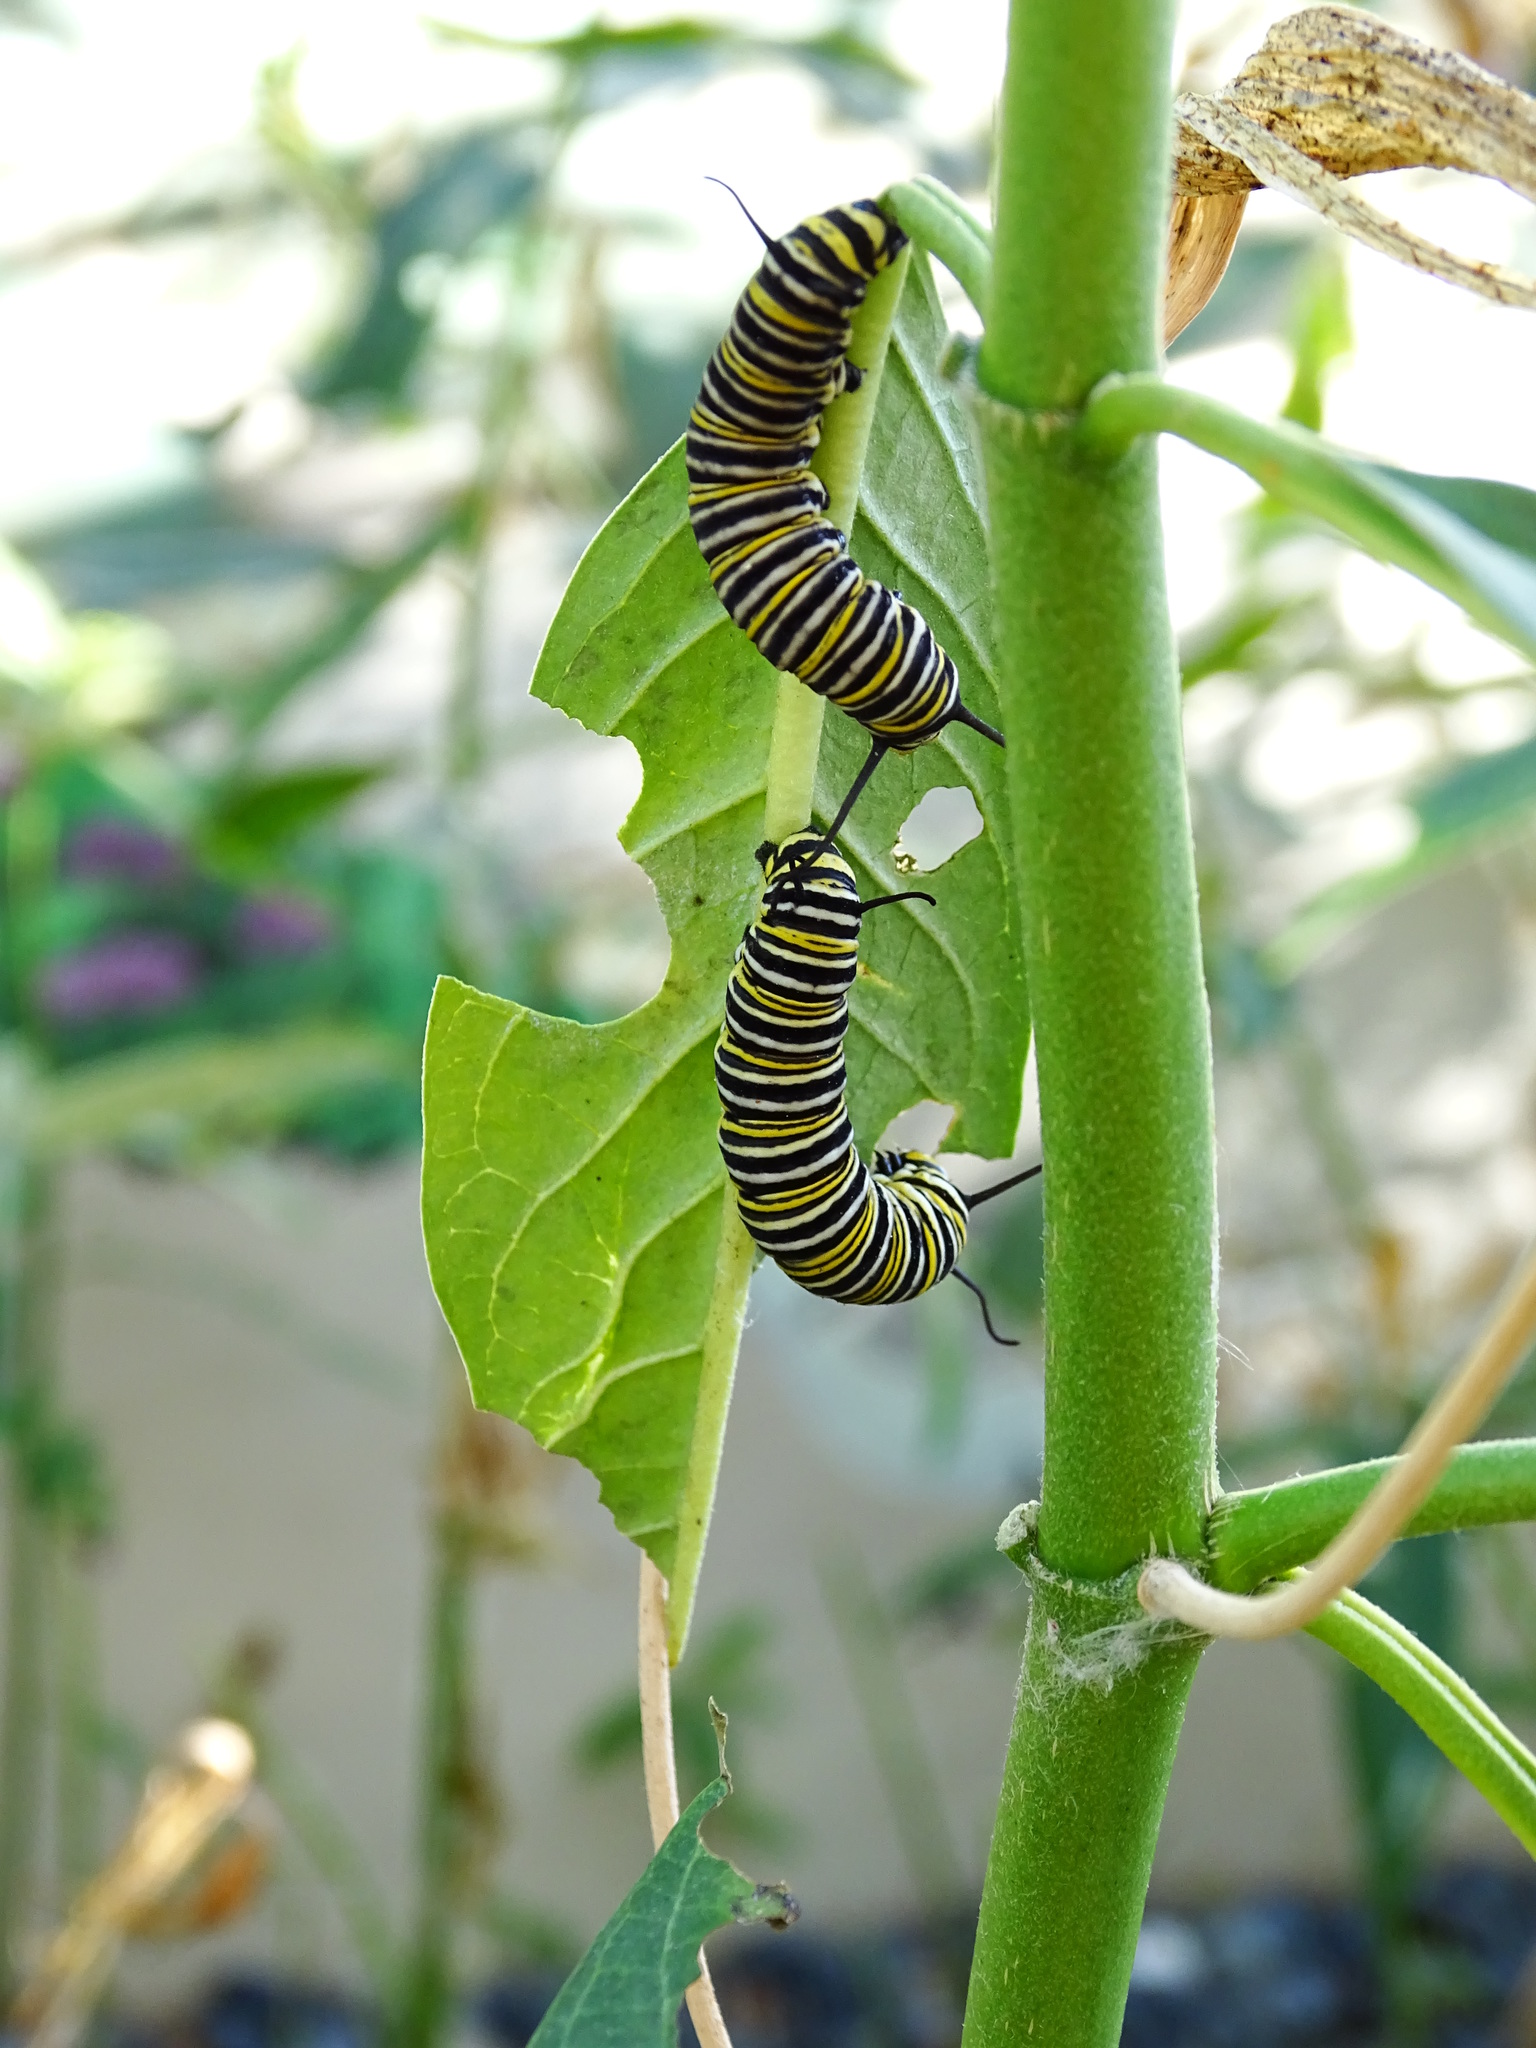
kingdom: Animalia
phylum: Arthropoda
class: Insecta
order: Lepidoptera
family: Nymphalidae
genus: Danaus
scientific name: Danaus plexippus
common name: Monarch
